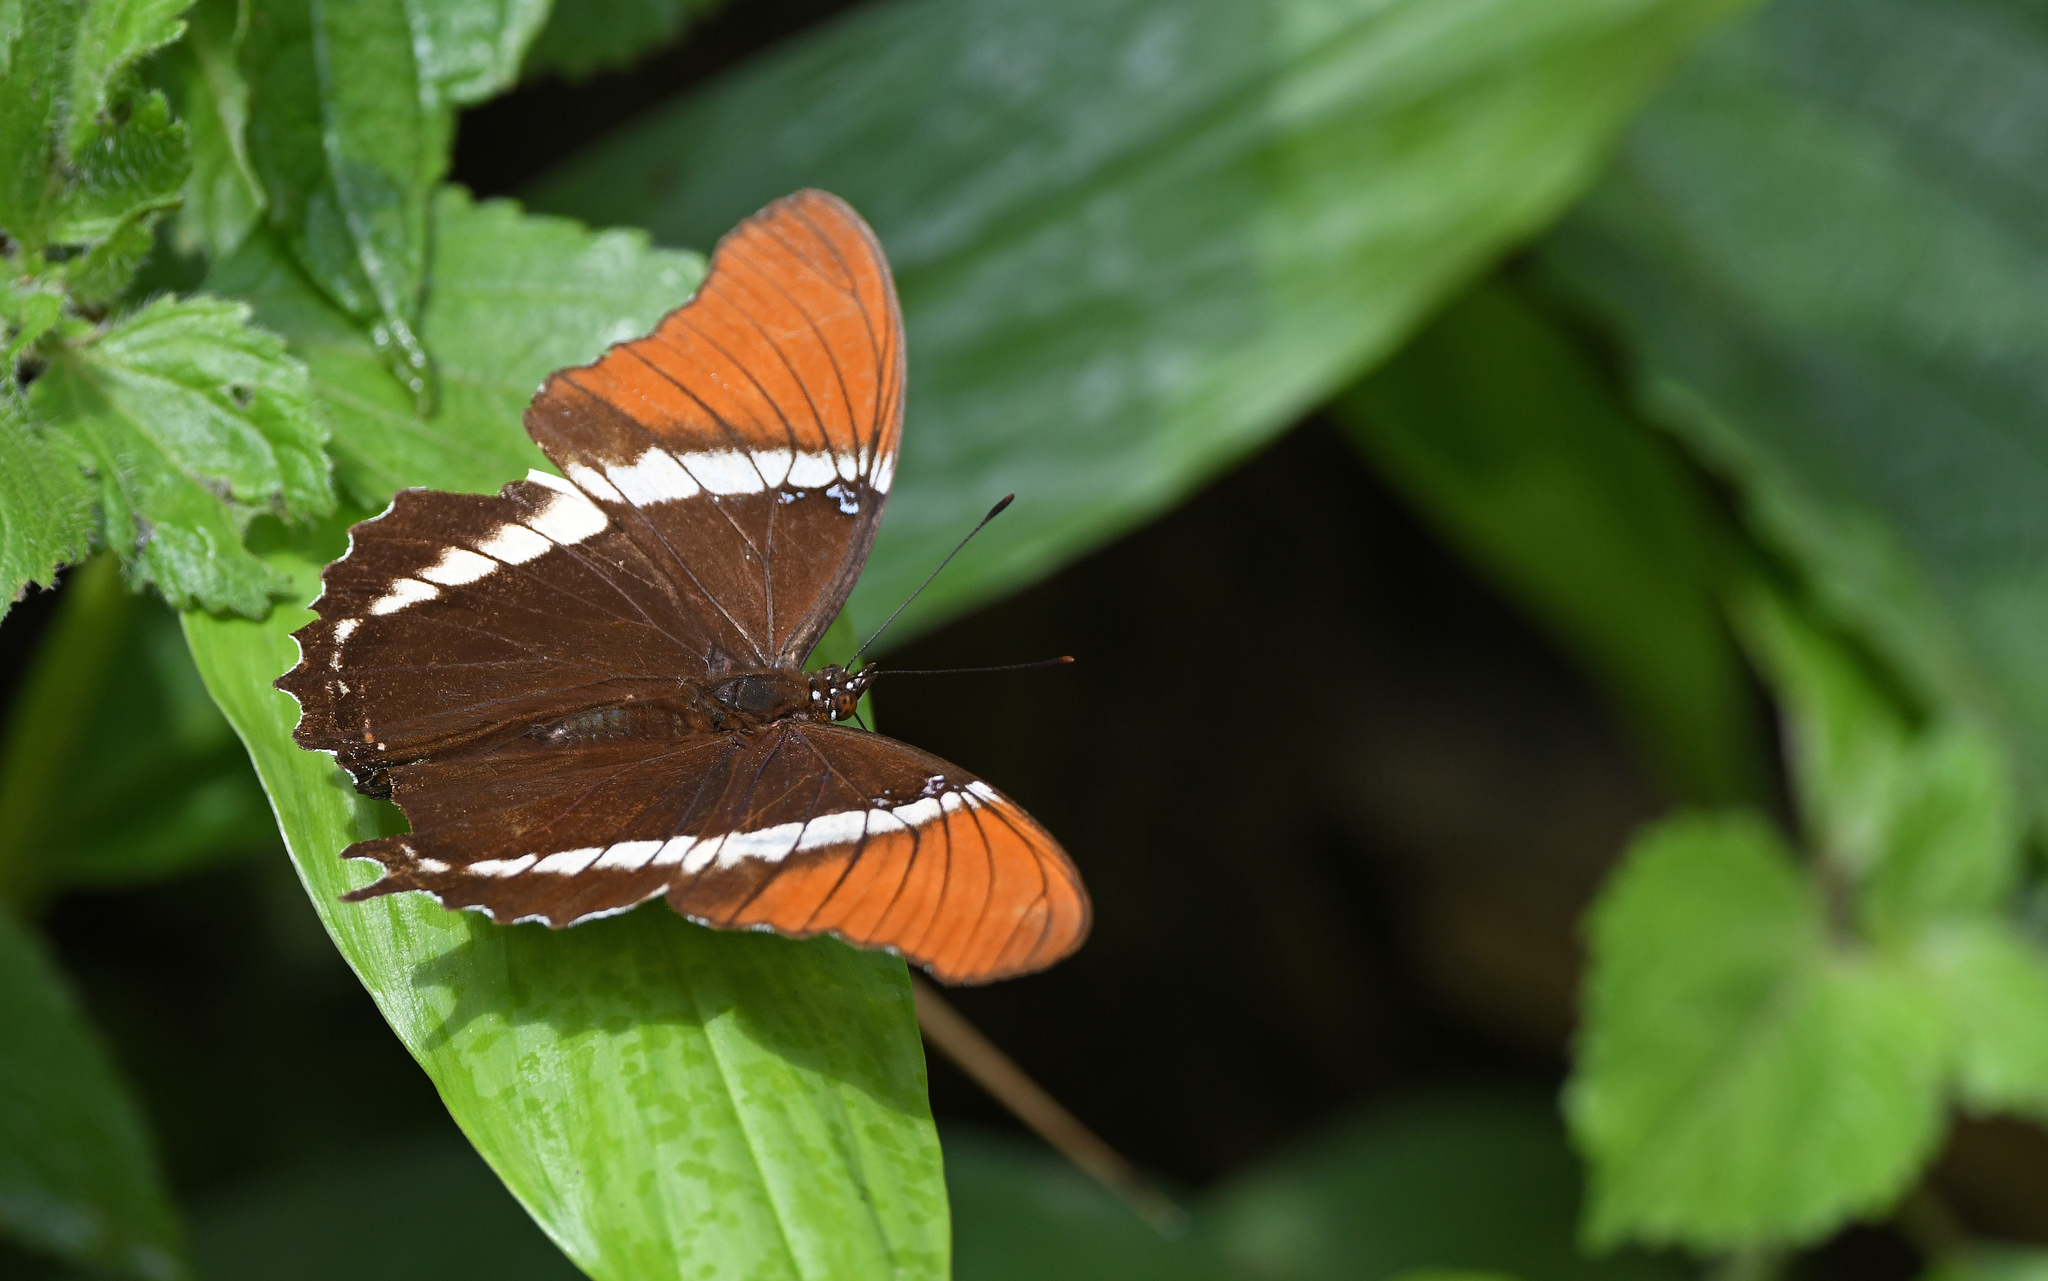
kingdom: Animalia
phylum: Arthropoda
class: Insecta
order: Lepidoptera
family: Nymphalidae
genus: Siproeta
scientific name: Siproeta epaphus
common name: Rusty-tipped page
